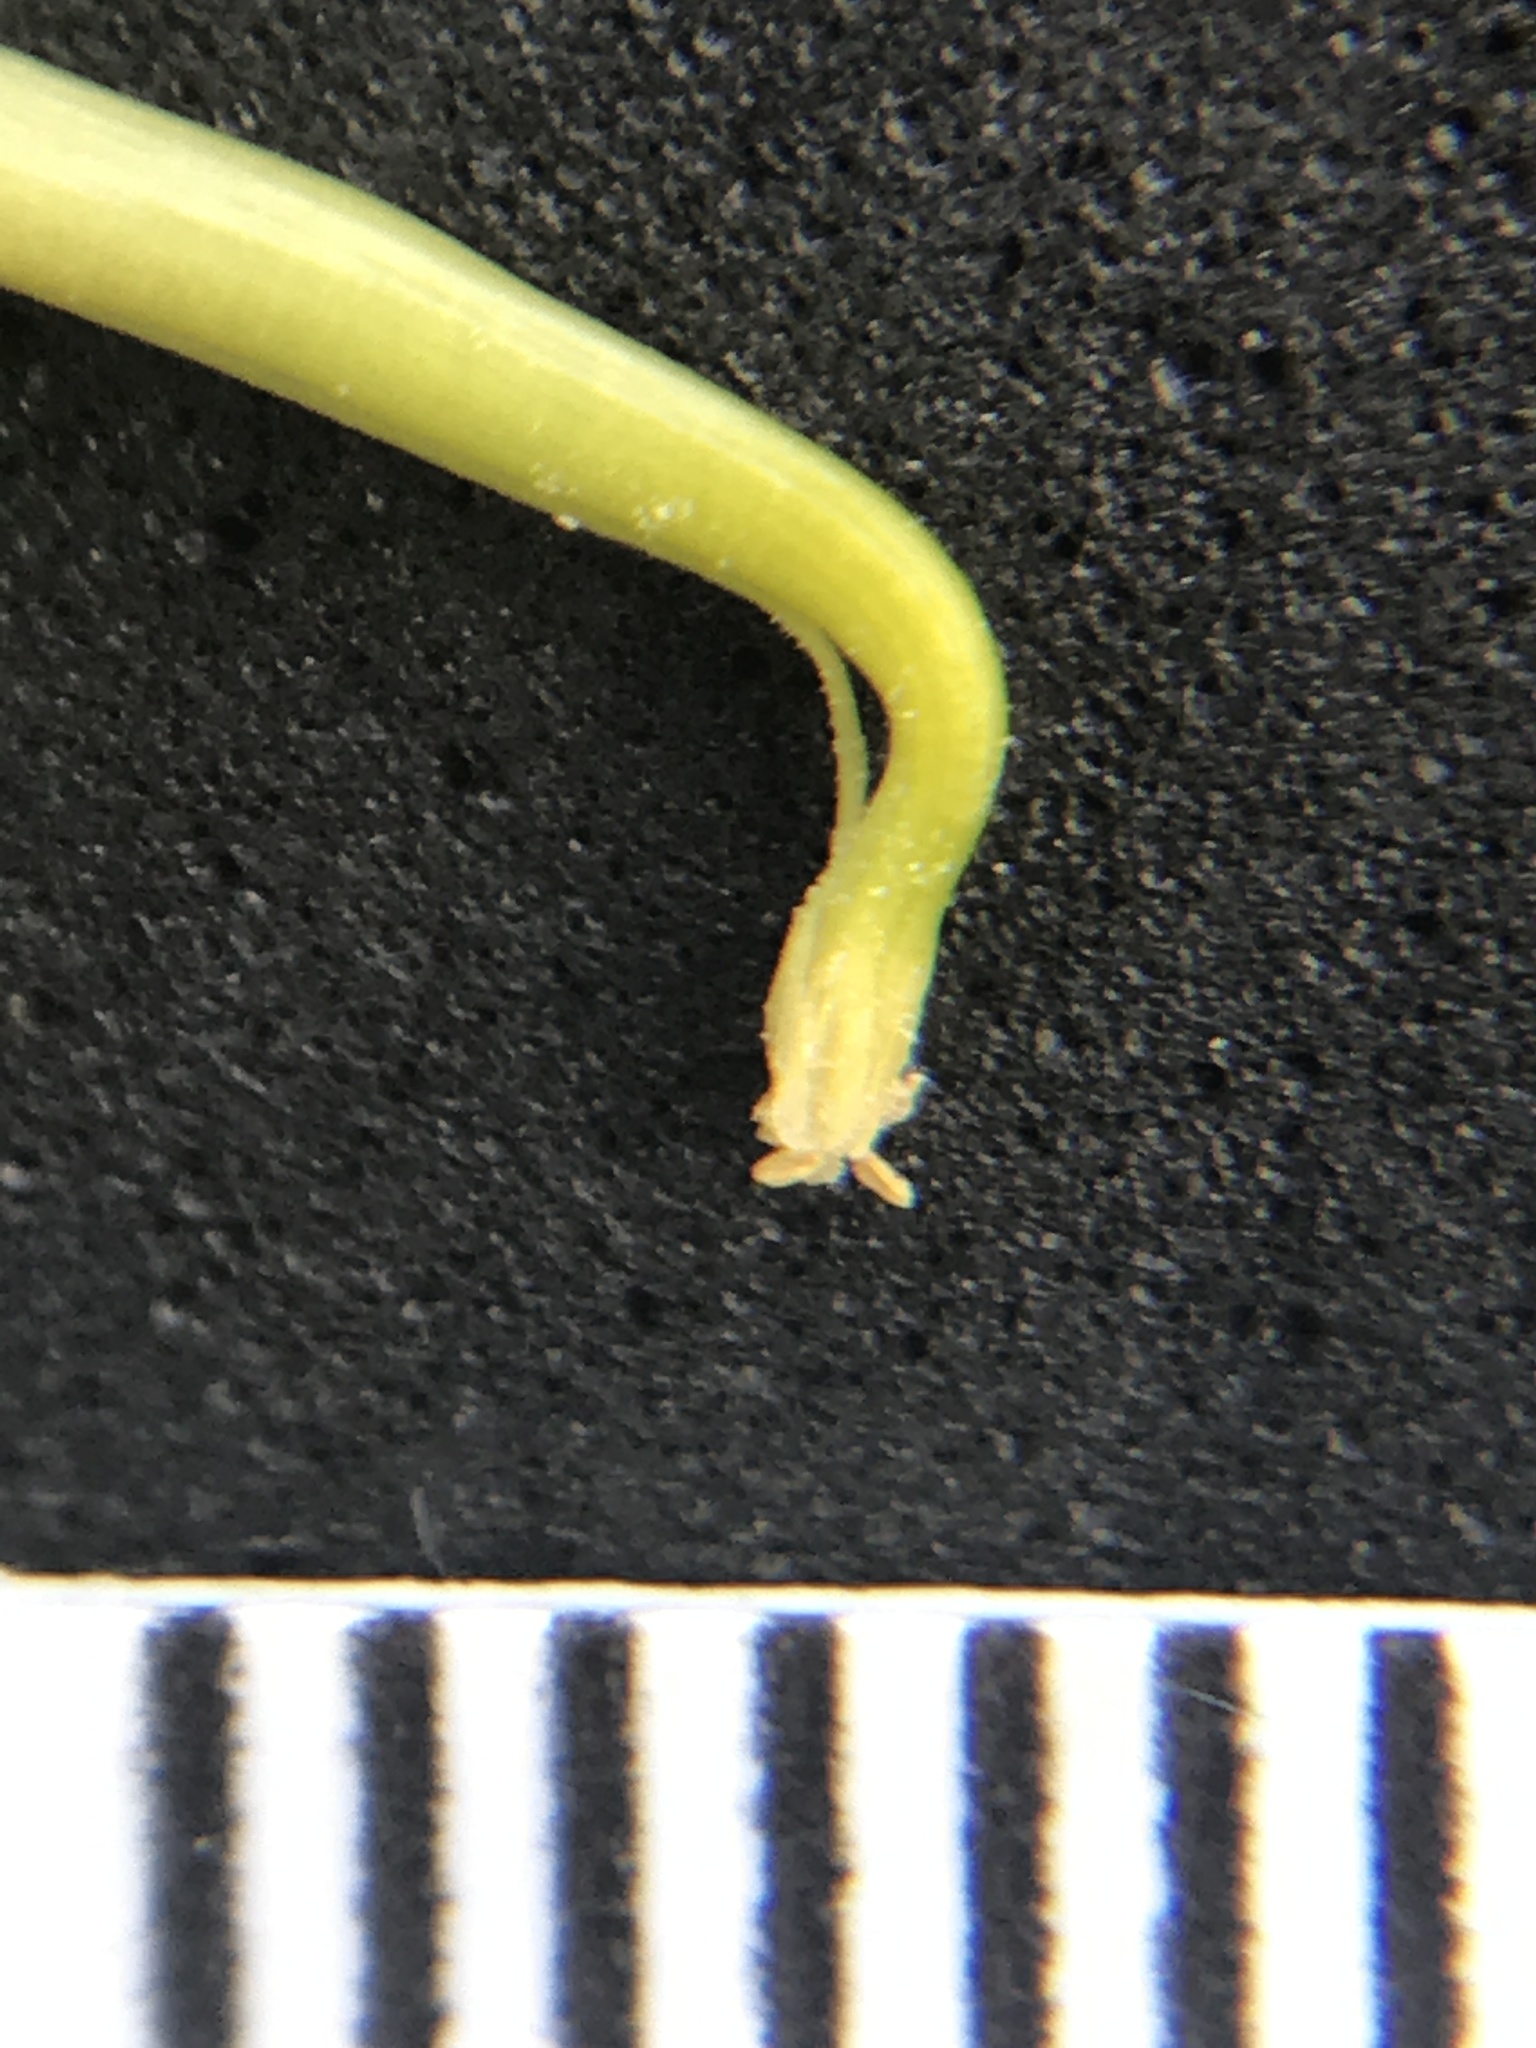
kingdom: Plantae
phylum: Tracheophyta
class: Magnoliopsida
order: Fabales
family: Fabaceae
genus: Hosackia
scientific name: Hosackia pinnata
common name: Bog bird's-foot trefoil
